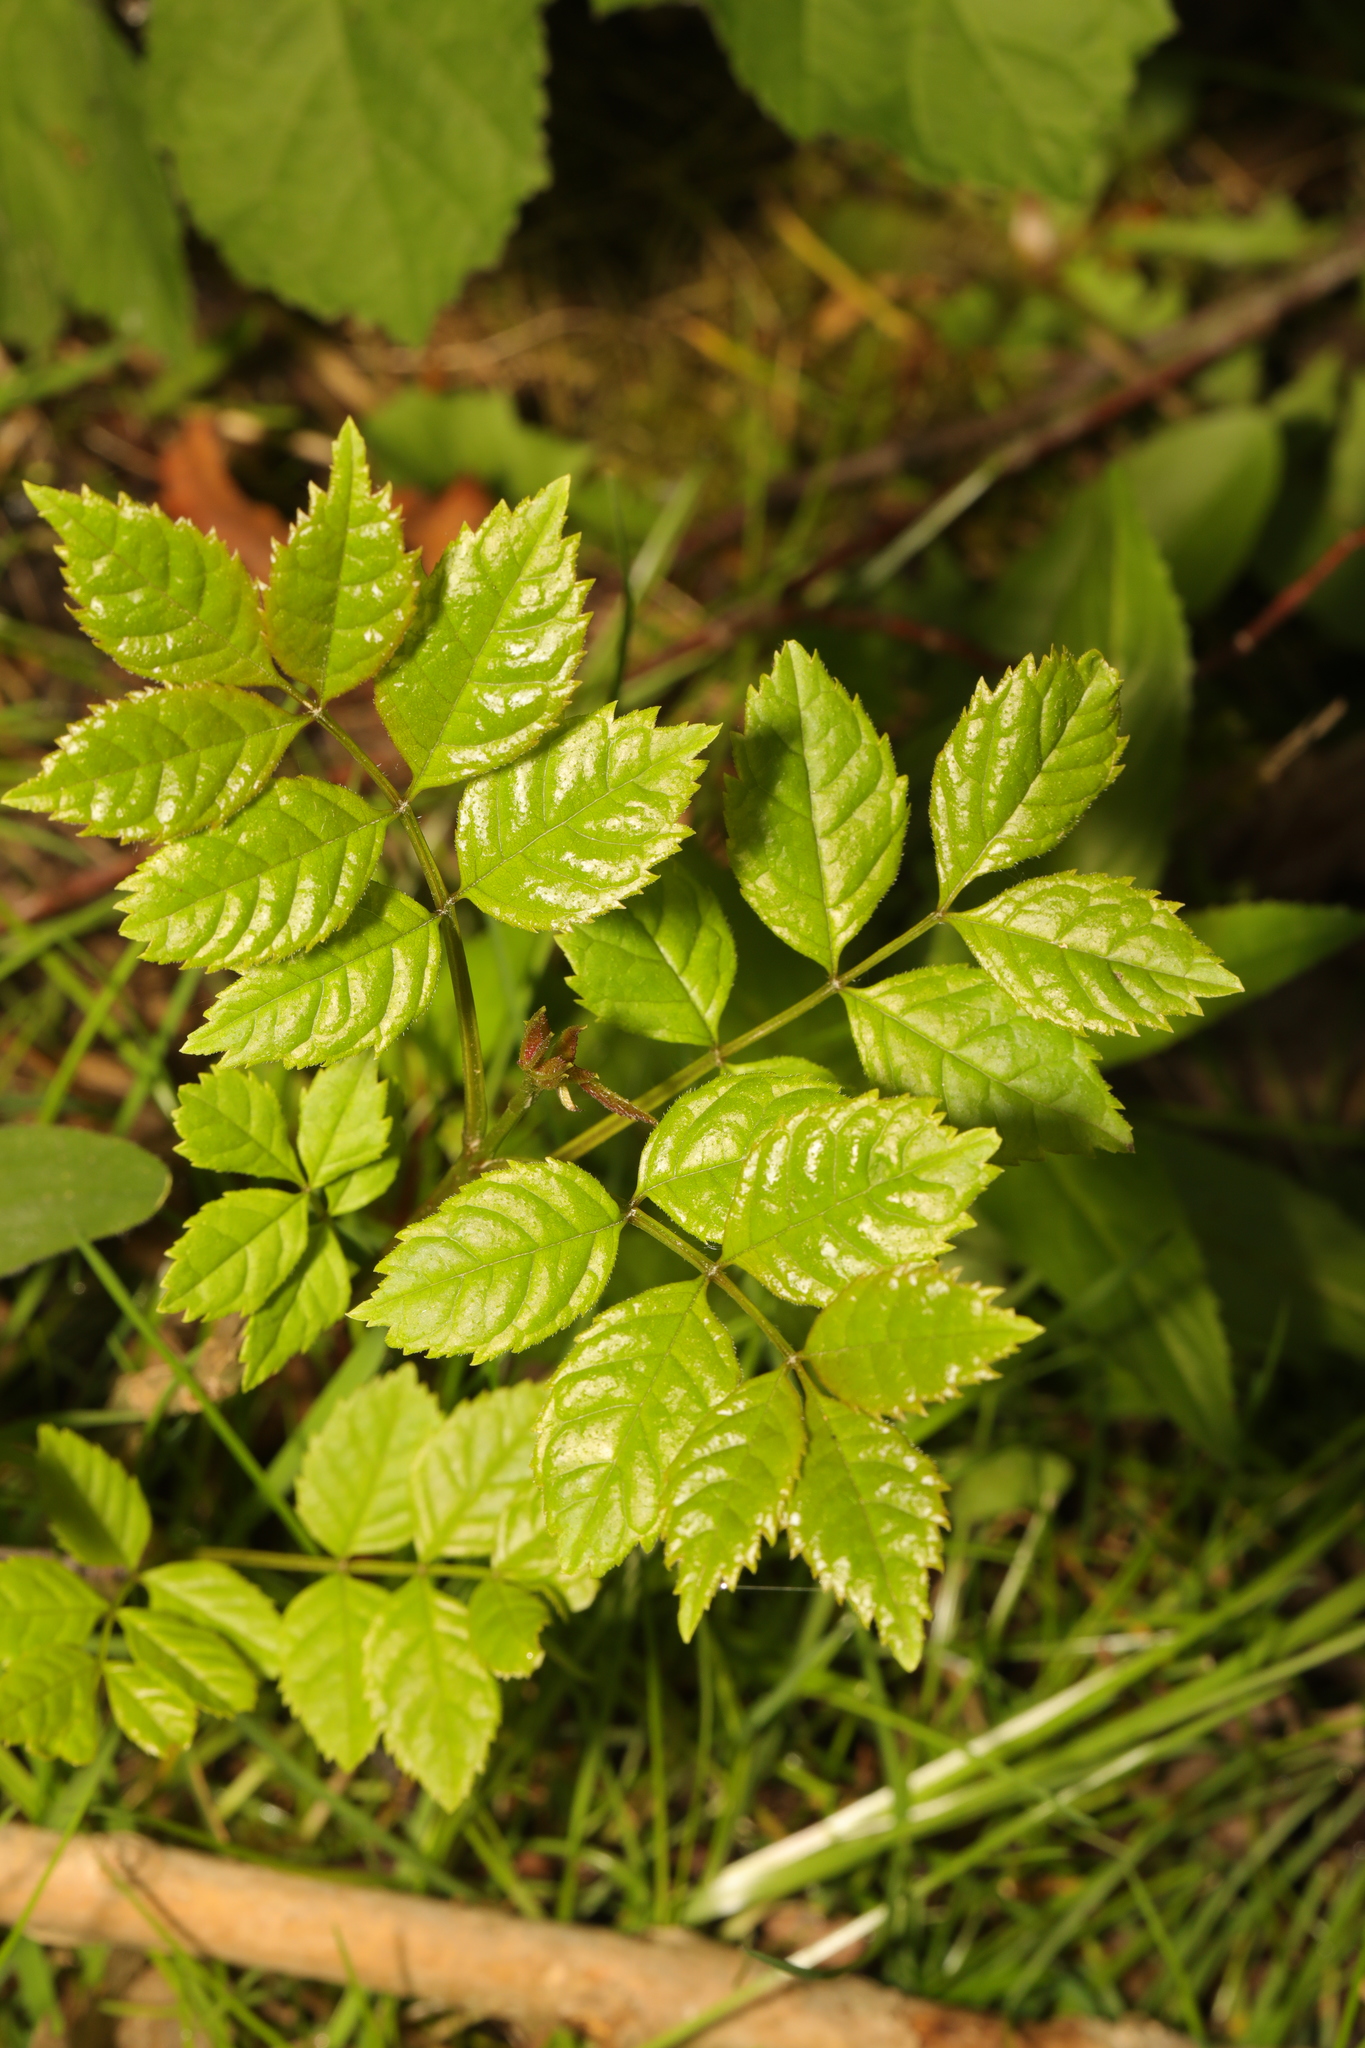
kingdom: Plantae
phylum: Tracheophyta
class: Magnoliopsida
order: Lamiales
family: Oleaceae
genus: Fraxinus
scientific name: Fraxinus excelsior
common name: European ash
